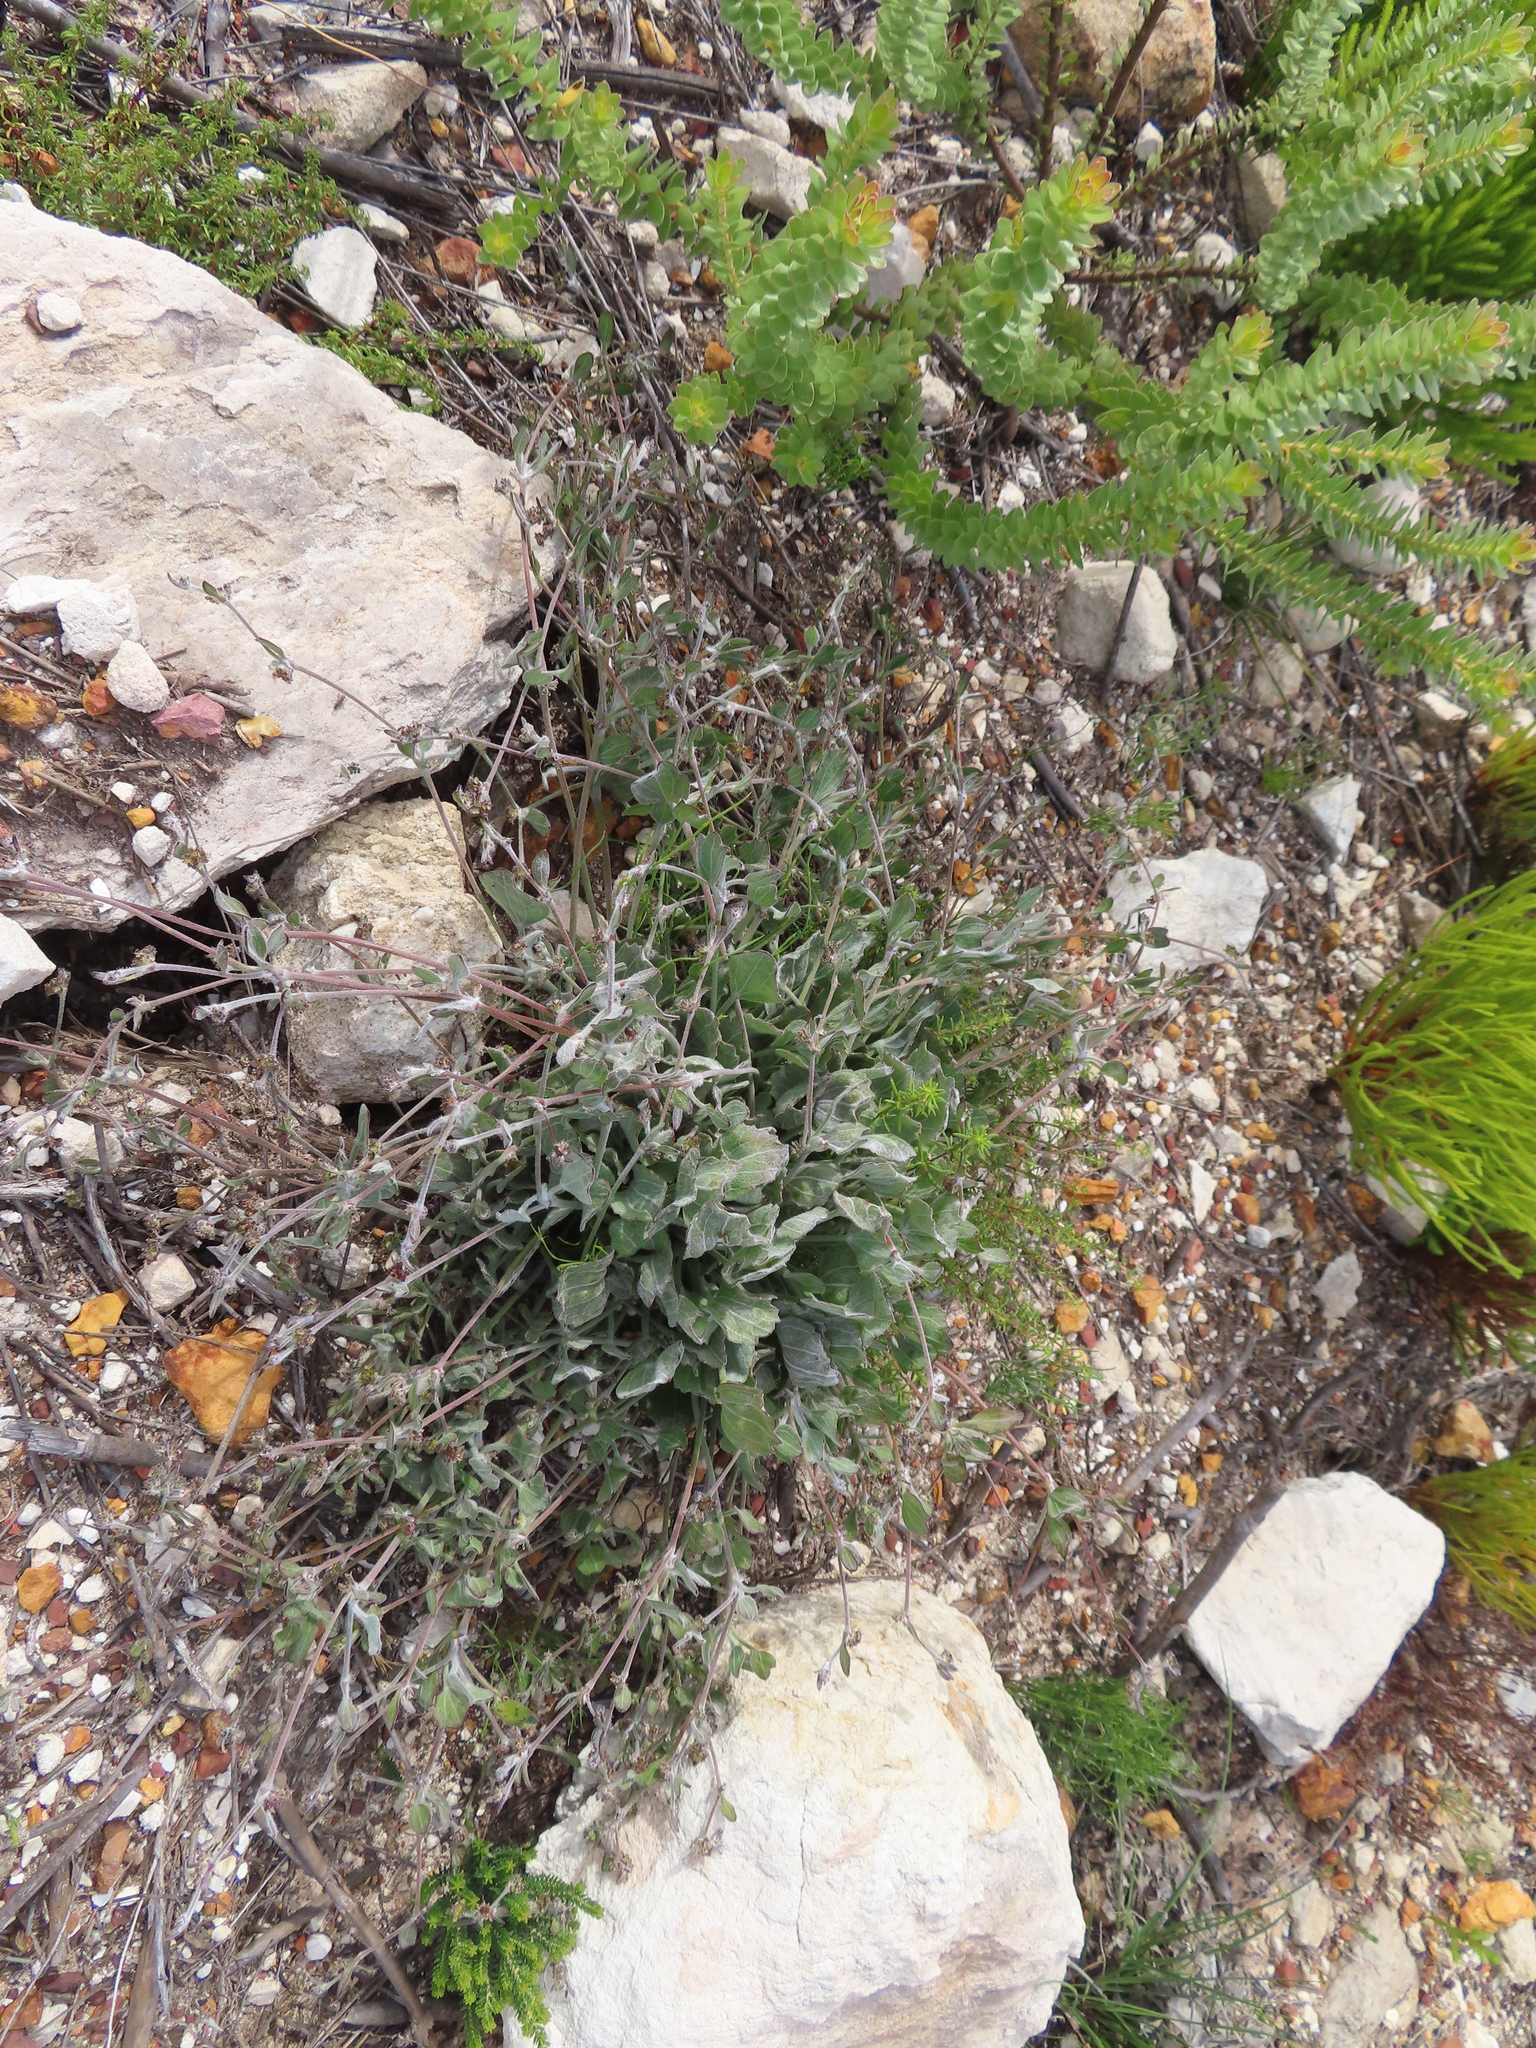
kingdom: Plantae
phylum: Tracheophyta
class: Magnoliopsida
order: Apiales
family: Apiaceae
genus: Centella
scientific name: Centella difformis
